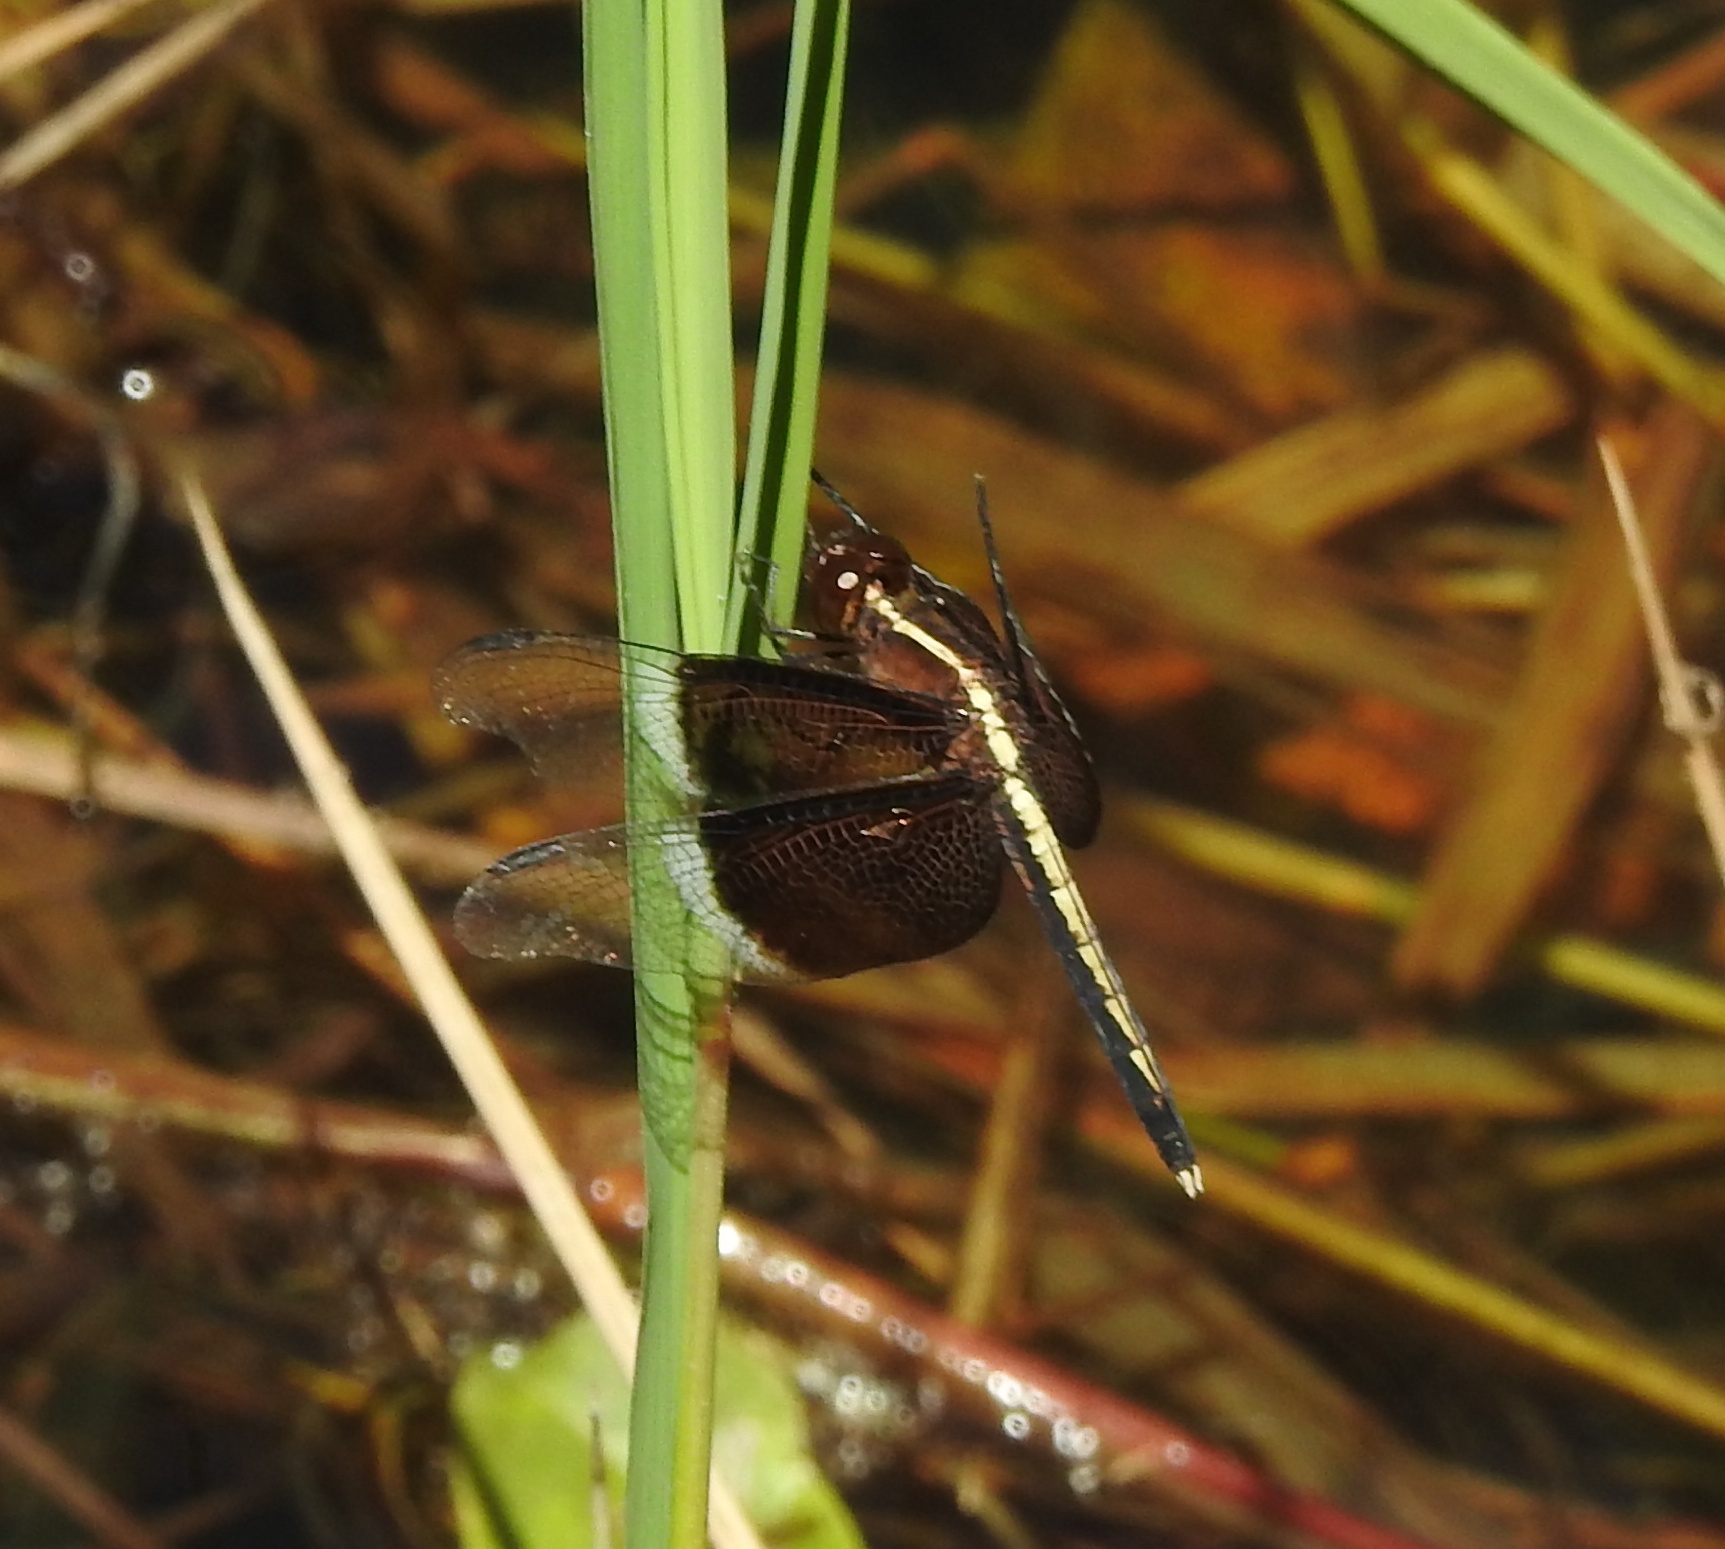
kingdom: Animalia
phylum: Arthropoda
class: Insecta
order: Odonata
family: Libellulidae
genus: Neurothemis
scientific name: Neurothemis tullia
